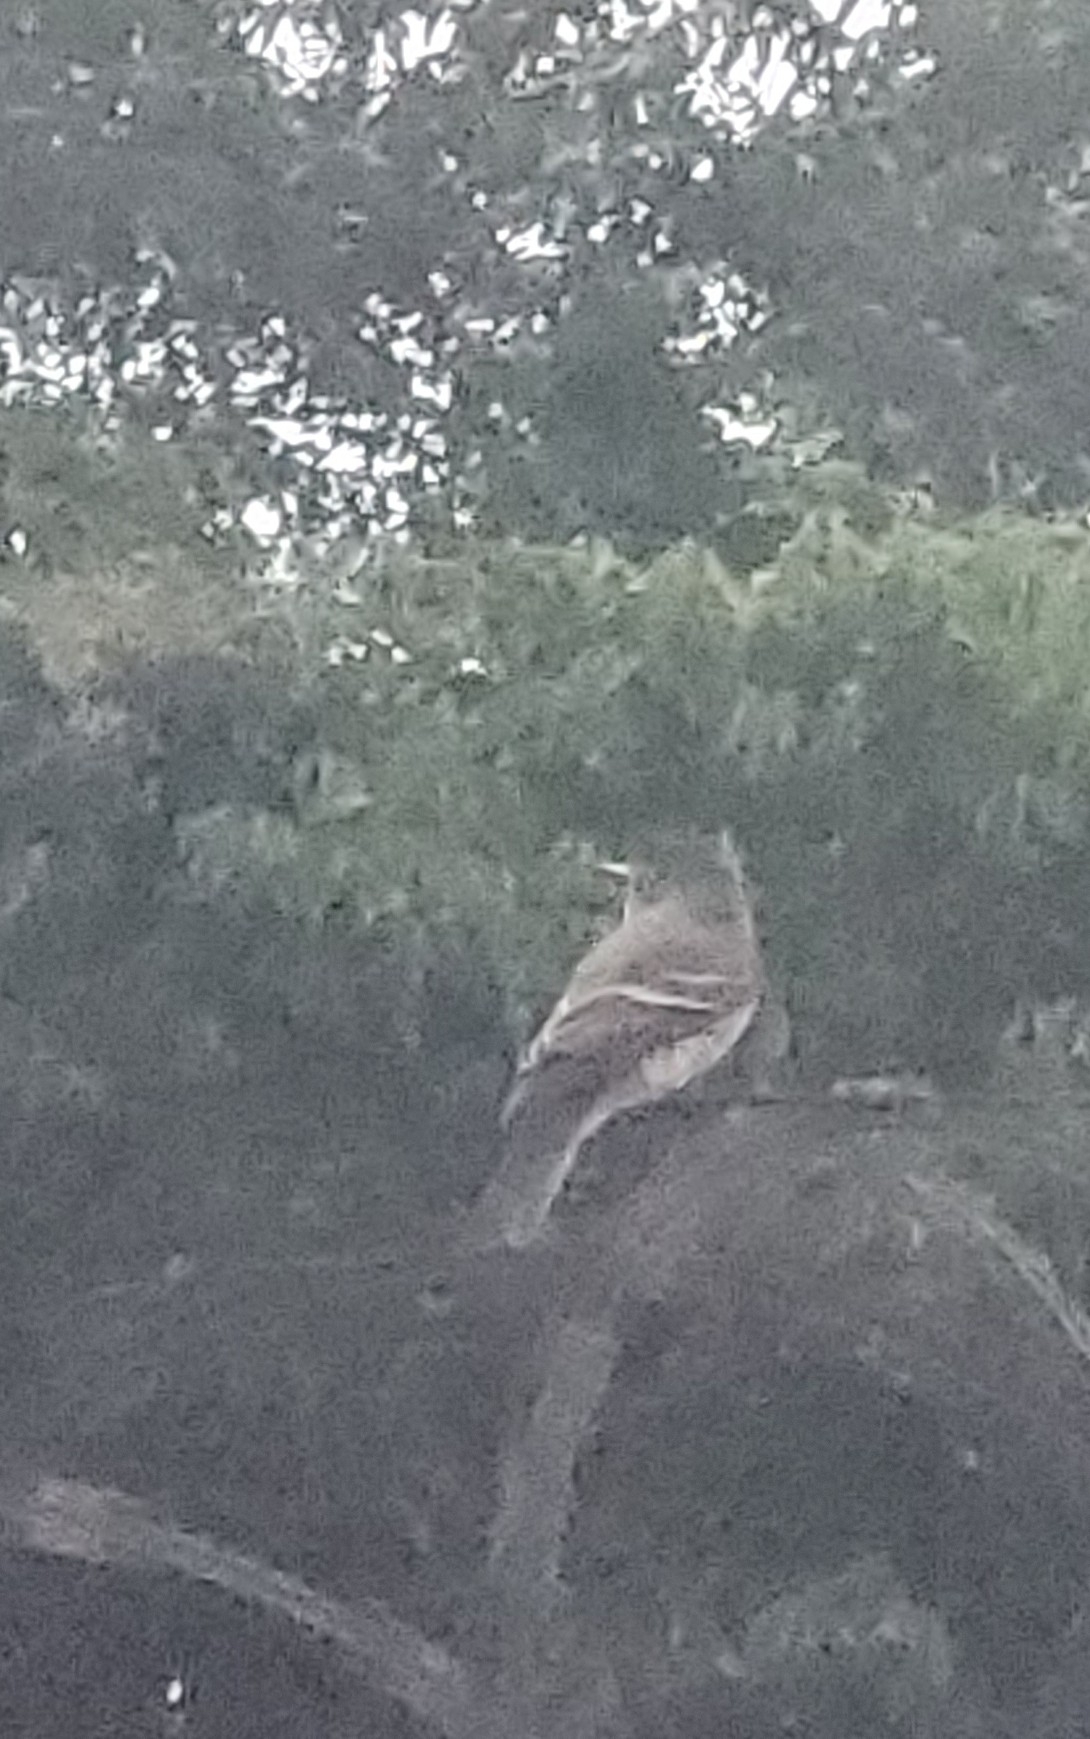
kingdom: Animalia
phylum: Chordata
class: Aves
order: Passeriformes
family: Tyrannidae
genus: Empidonax
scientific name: Empidonax traillii
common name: Willow flycatcher
